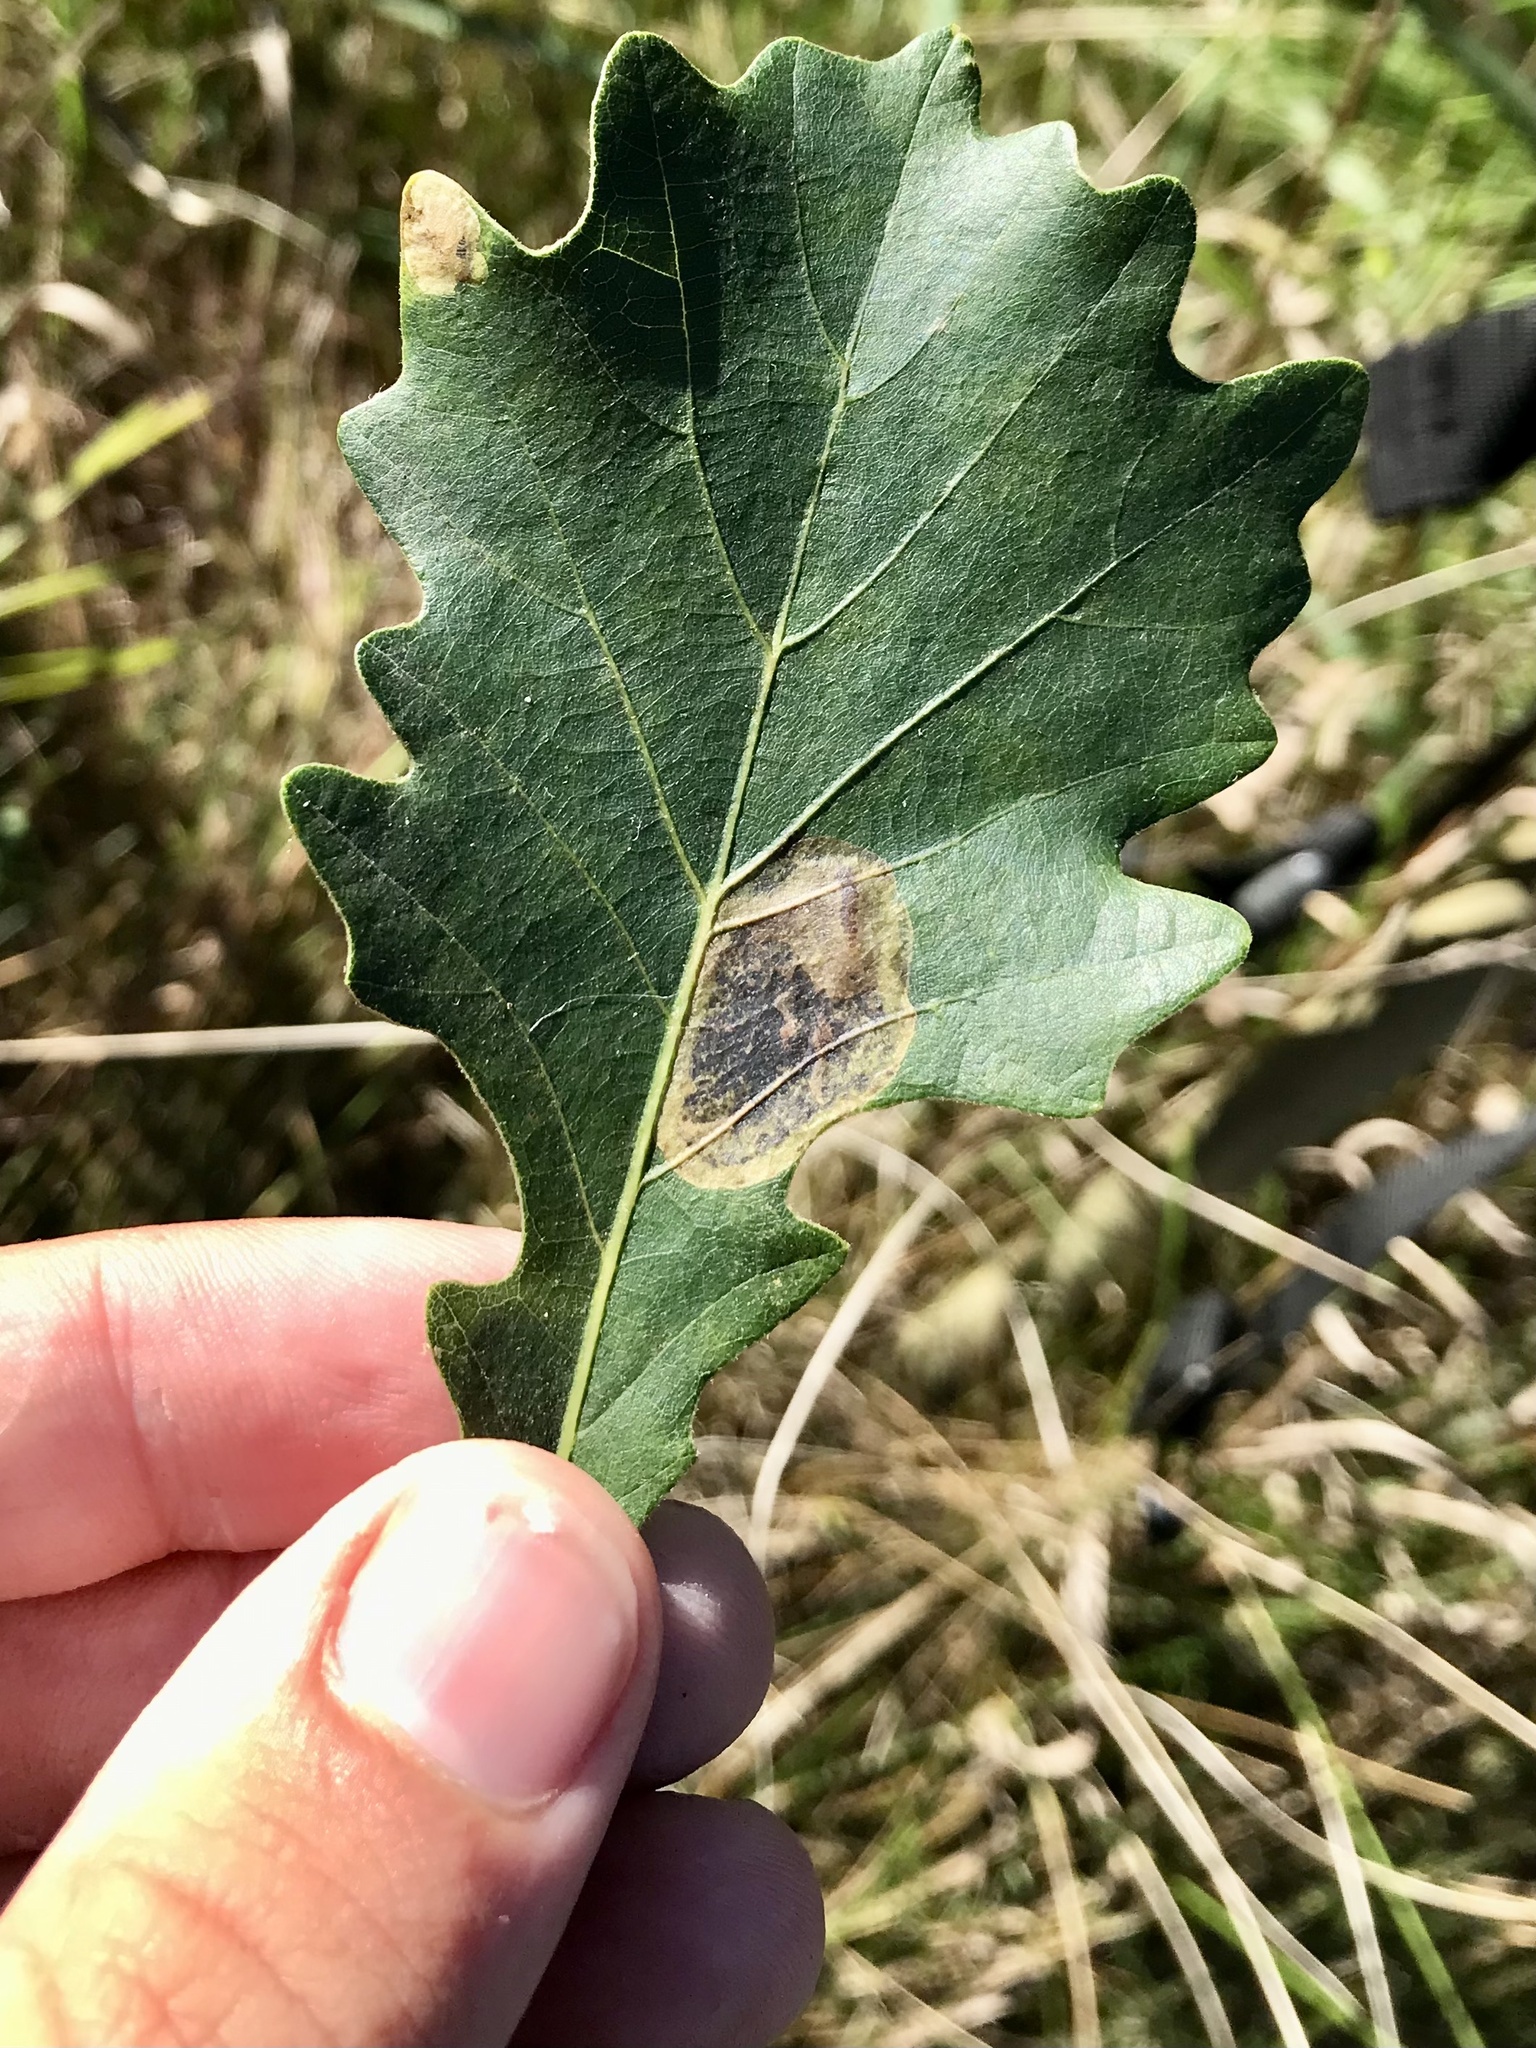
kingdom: Animalia
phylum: Arthropoda
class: Insecta
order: Lepidoptera
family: Gracillariidae
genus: Cameraria
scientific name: Cameraria
